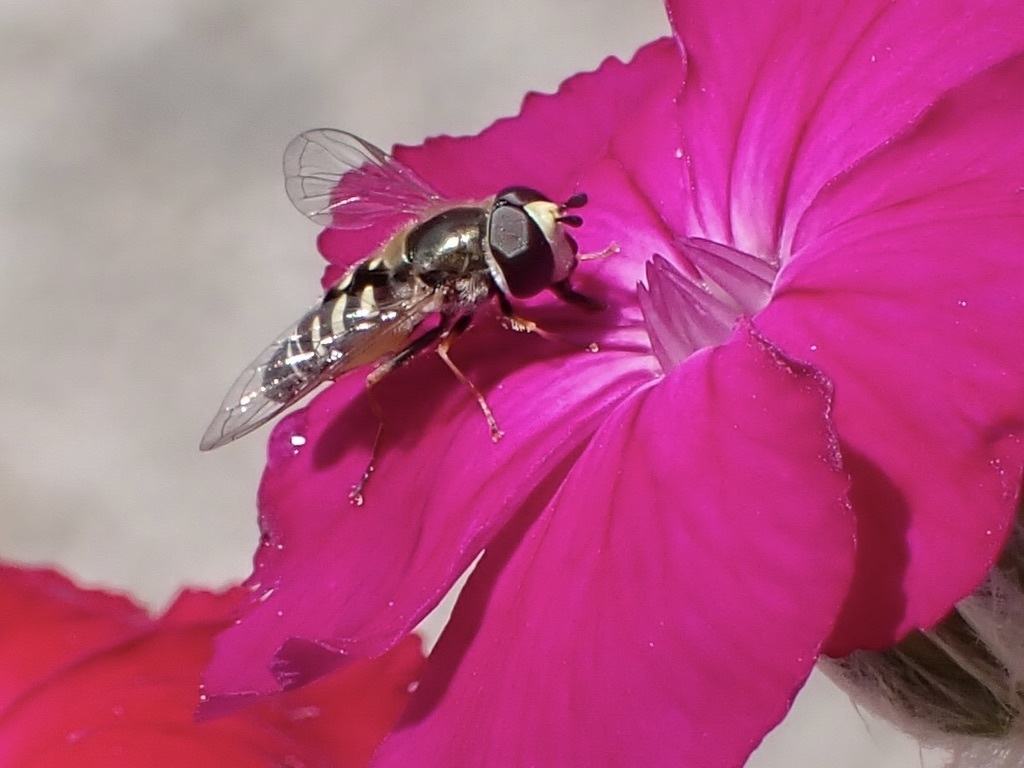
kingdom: Animalia
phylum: Arthropoda
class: Insecta
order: Diptera
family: Syrphidae
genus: Eupeodes
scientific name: Eupeodes volucris
